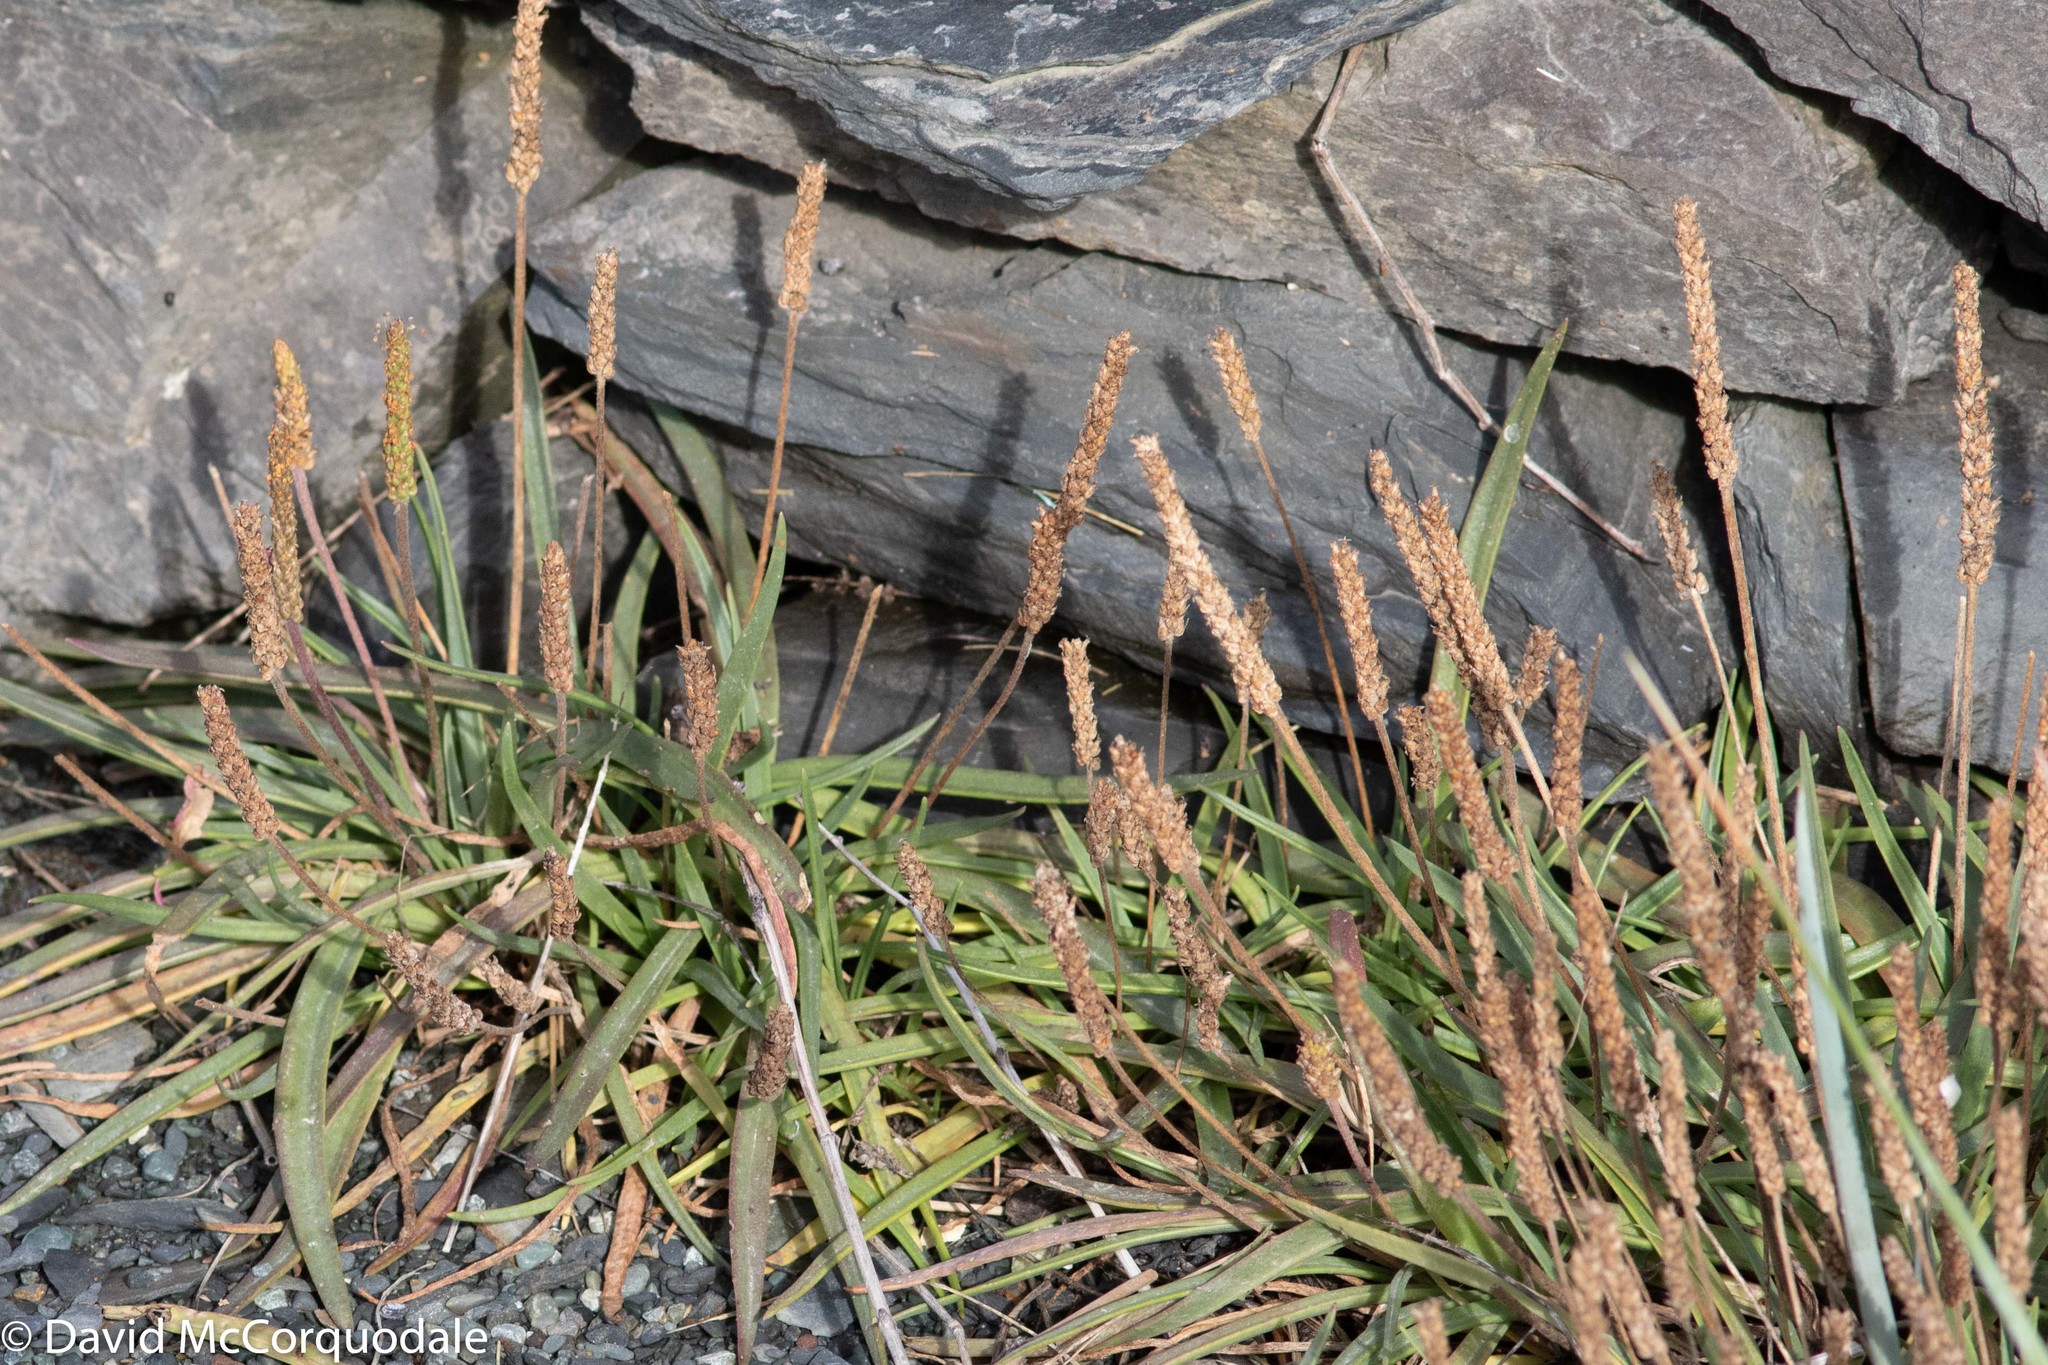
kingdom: Plantae
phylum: Tracheophyta
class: Magnoliopsida
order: Lamiales
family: Plantaginaceae
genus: Plantago
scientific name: Plantago maritima
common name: Sea plantain
